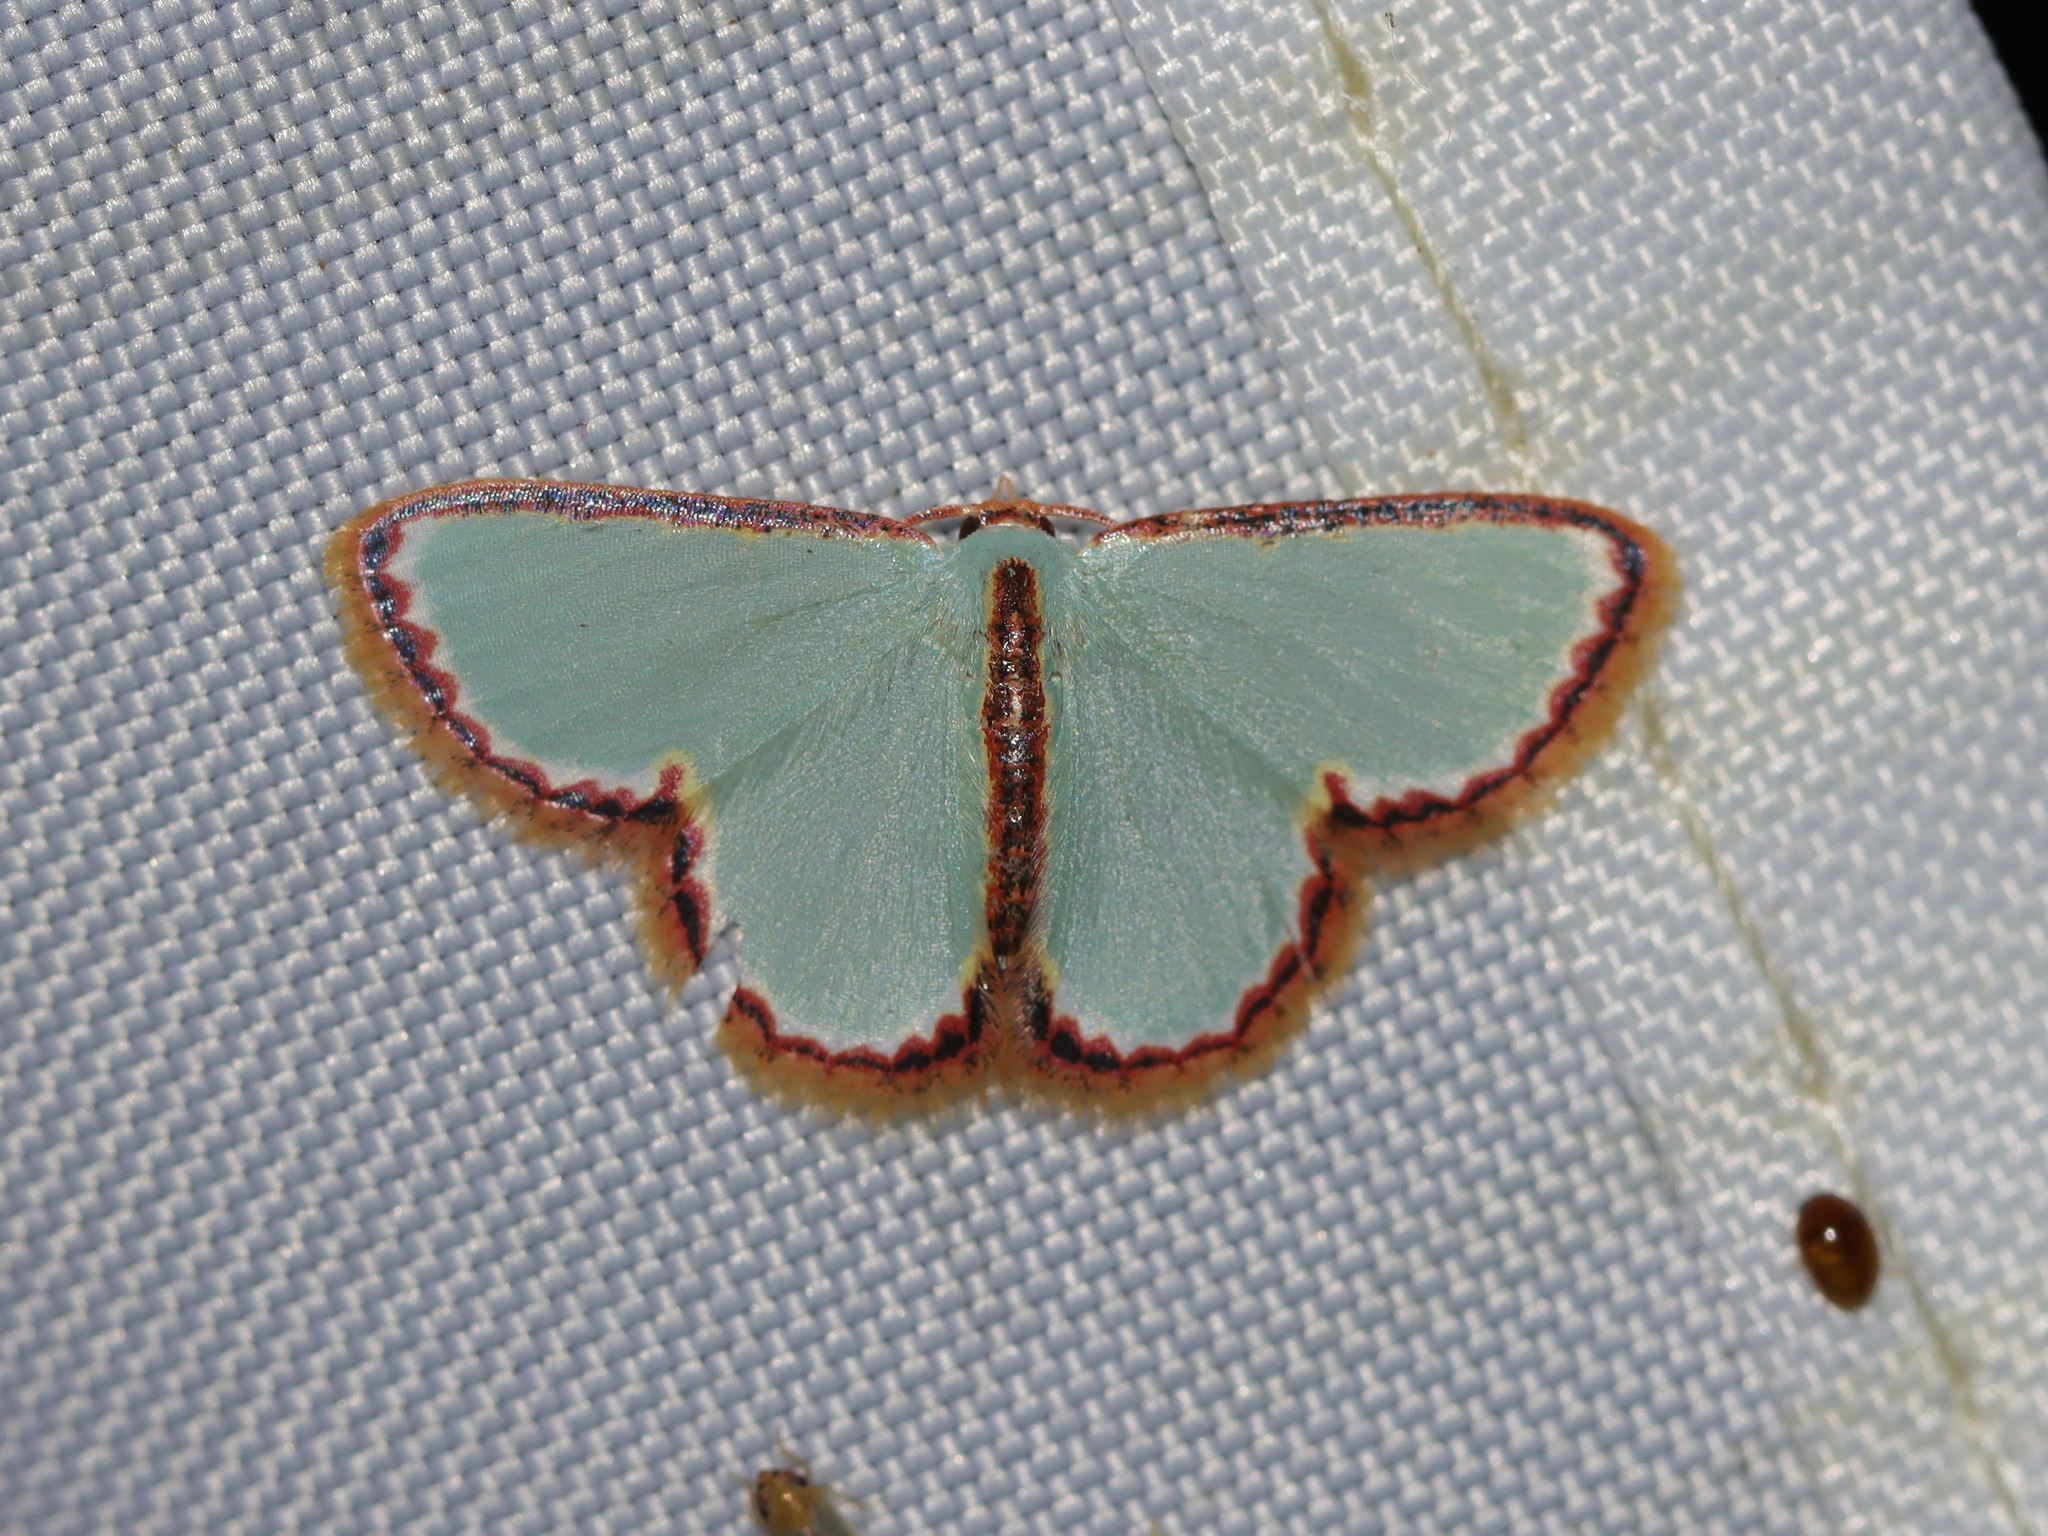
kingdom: Animalia
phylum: Arthropoda
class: Insecta
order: Lepidoptera
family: Geometridae
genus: Comostola
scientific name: Comostola pyrrhogona
